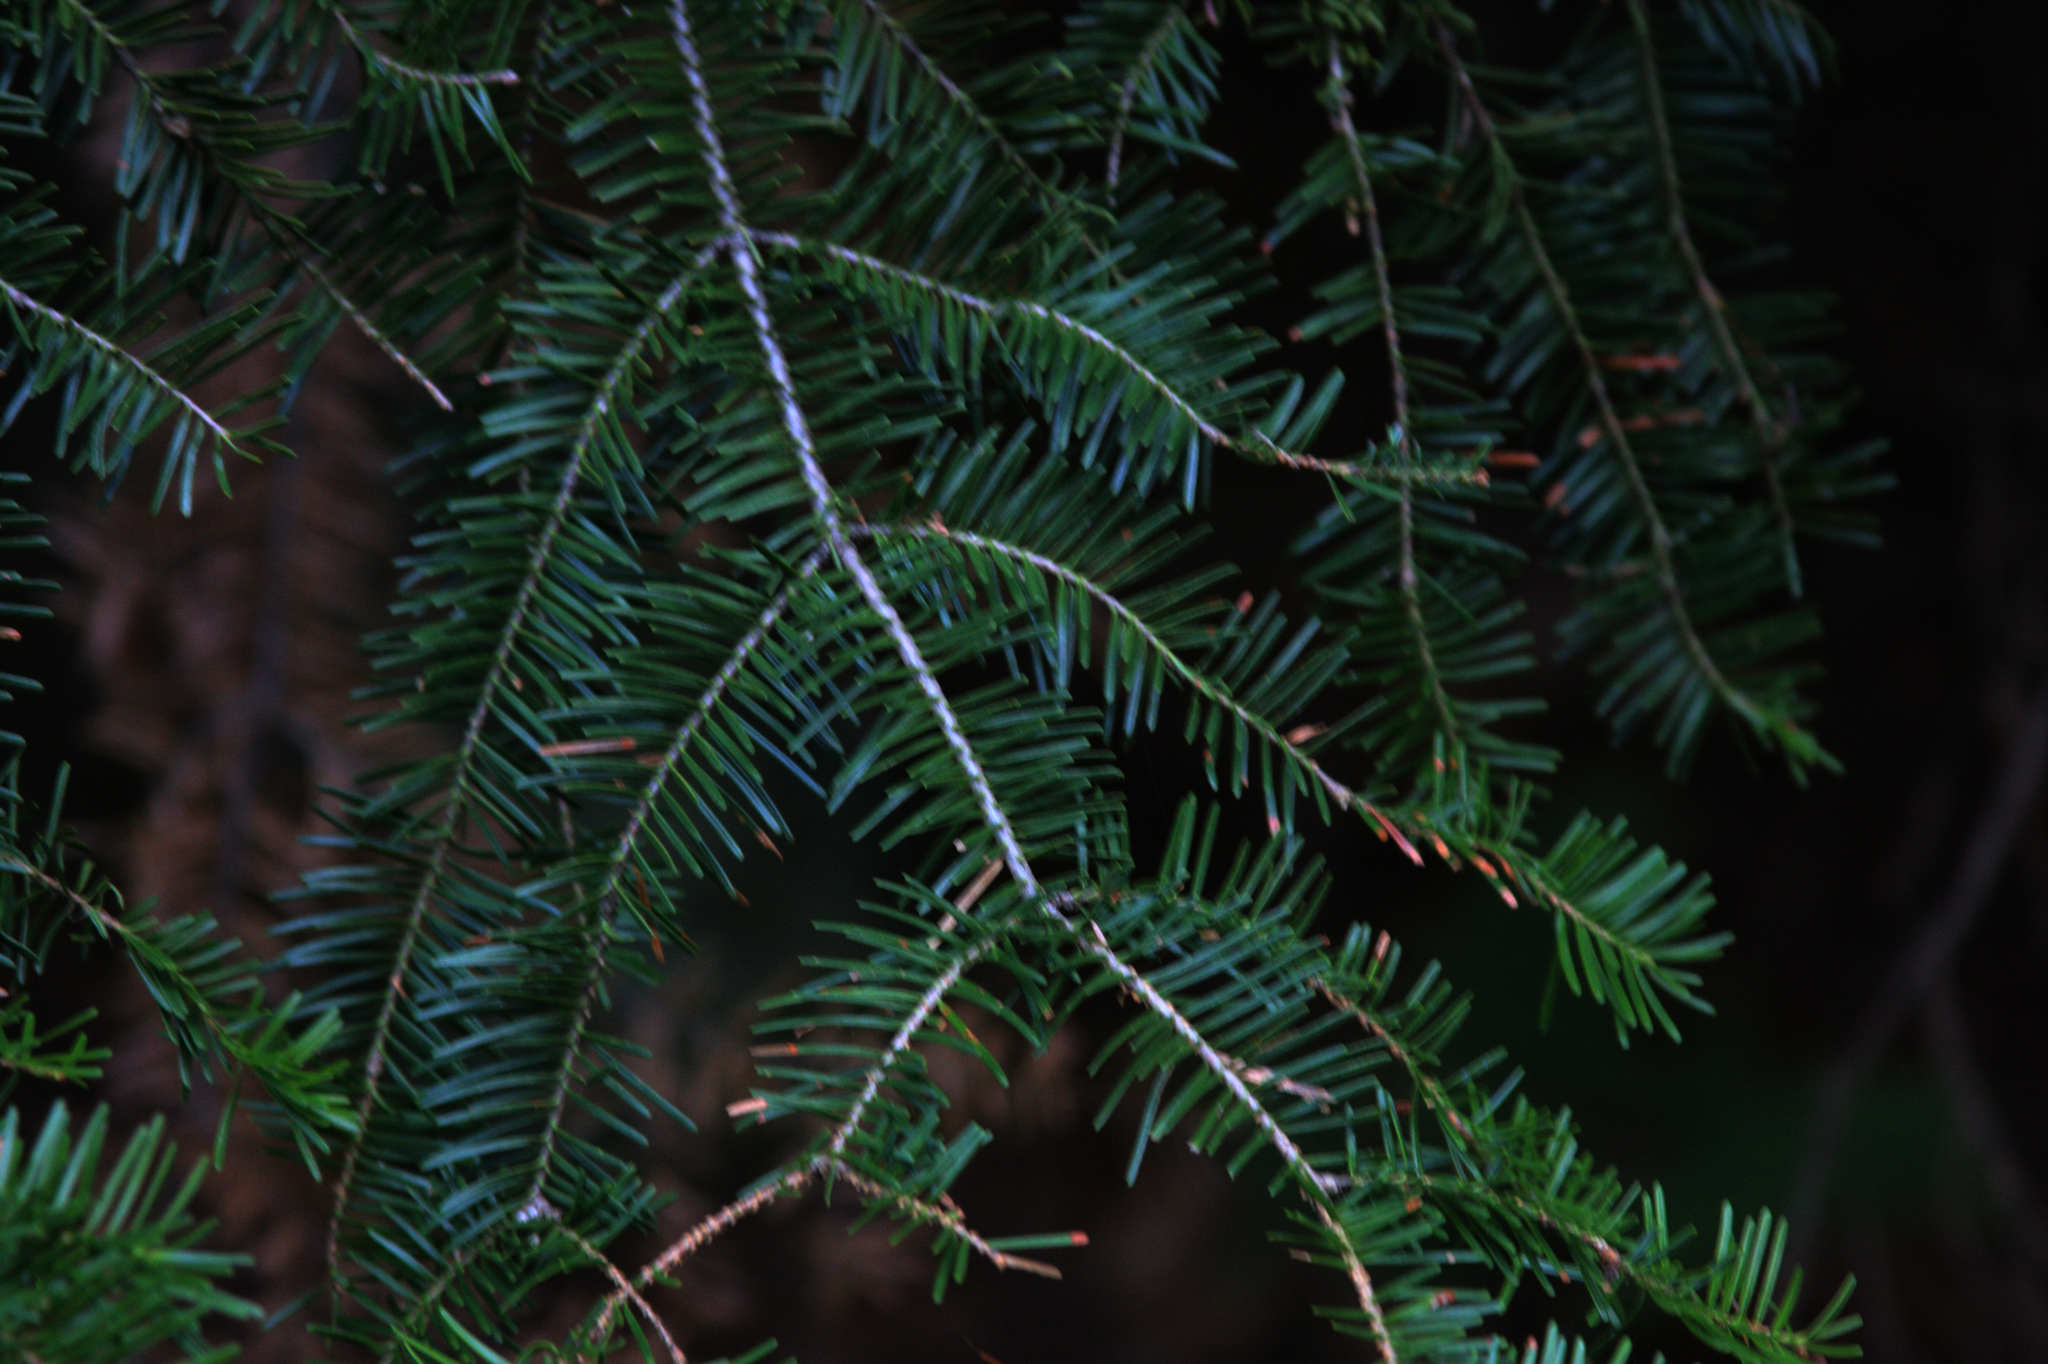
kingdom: Plantae
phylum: Tracheophyta
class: Pinopsida
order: Pinales
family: Pinaceae
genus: Abies
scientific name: Abies balsamea
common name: Balsam fir
